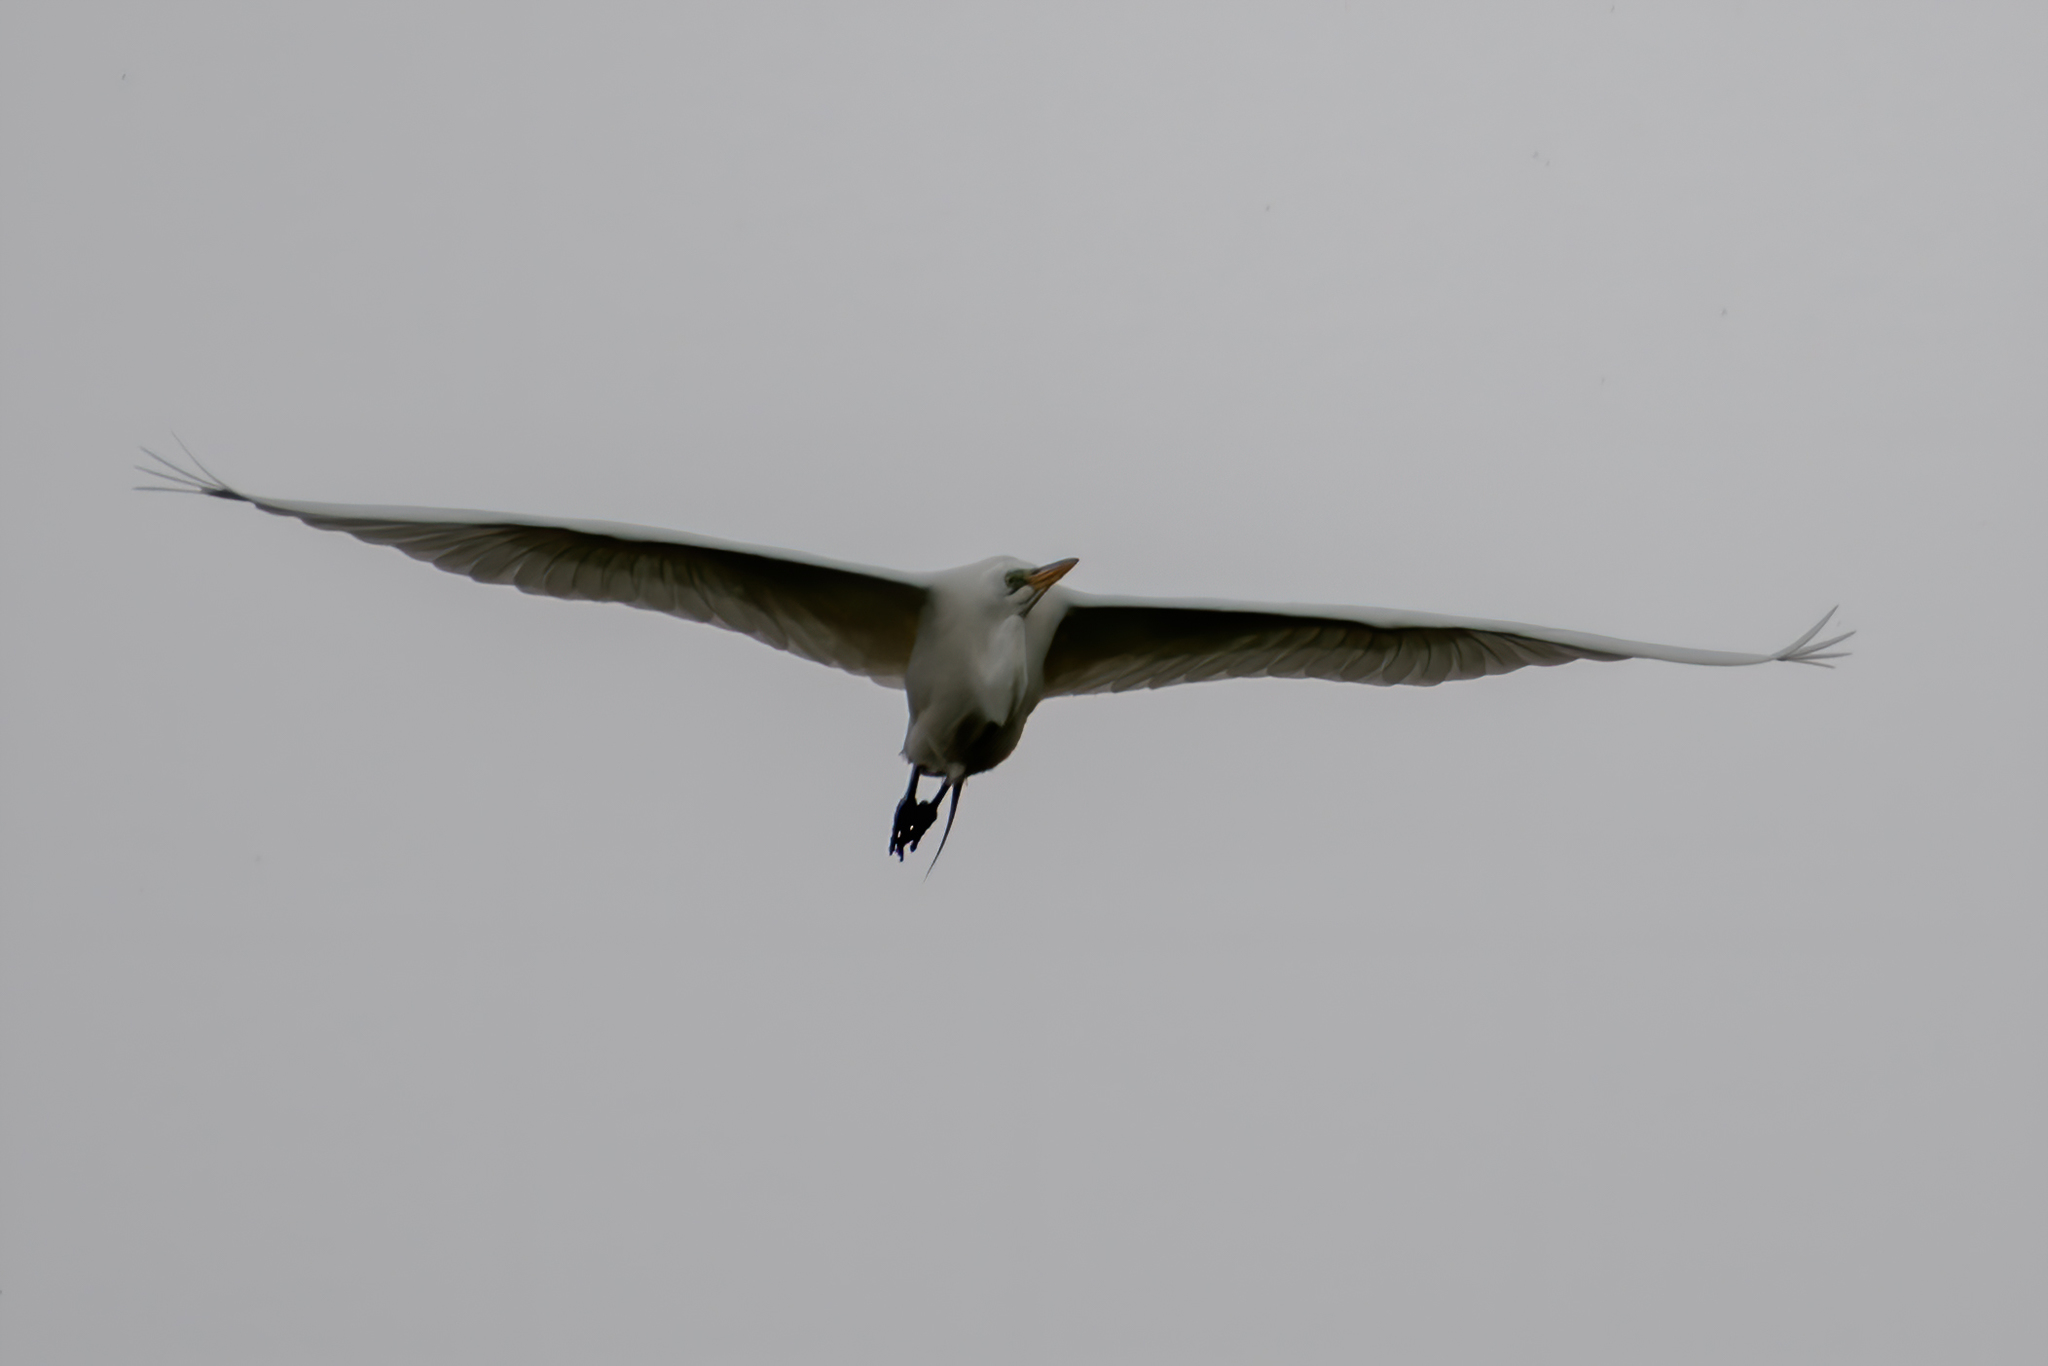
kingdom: Animalia
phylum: Chordata
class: Aves
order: Pelecaniformes
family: Ardeidae
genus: Ardea
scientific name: Ardea alba
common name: Great egret
